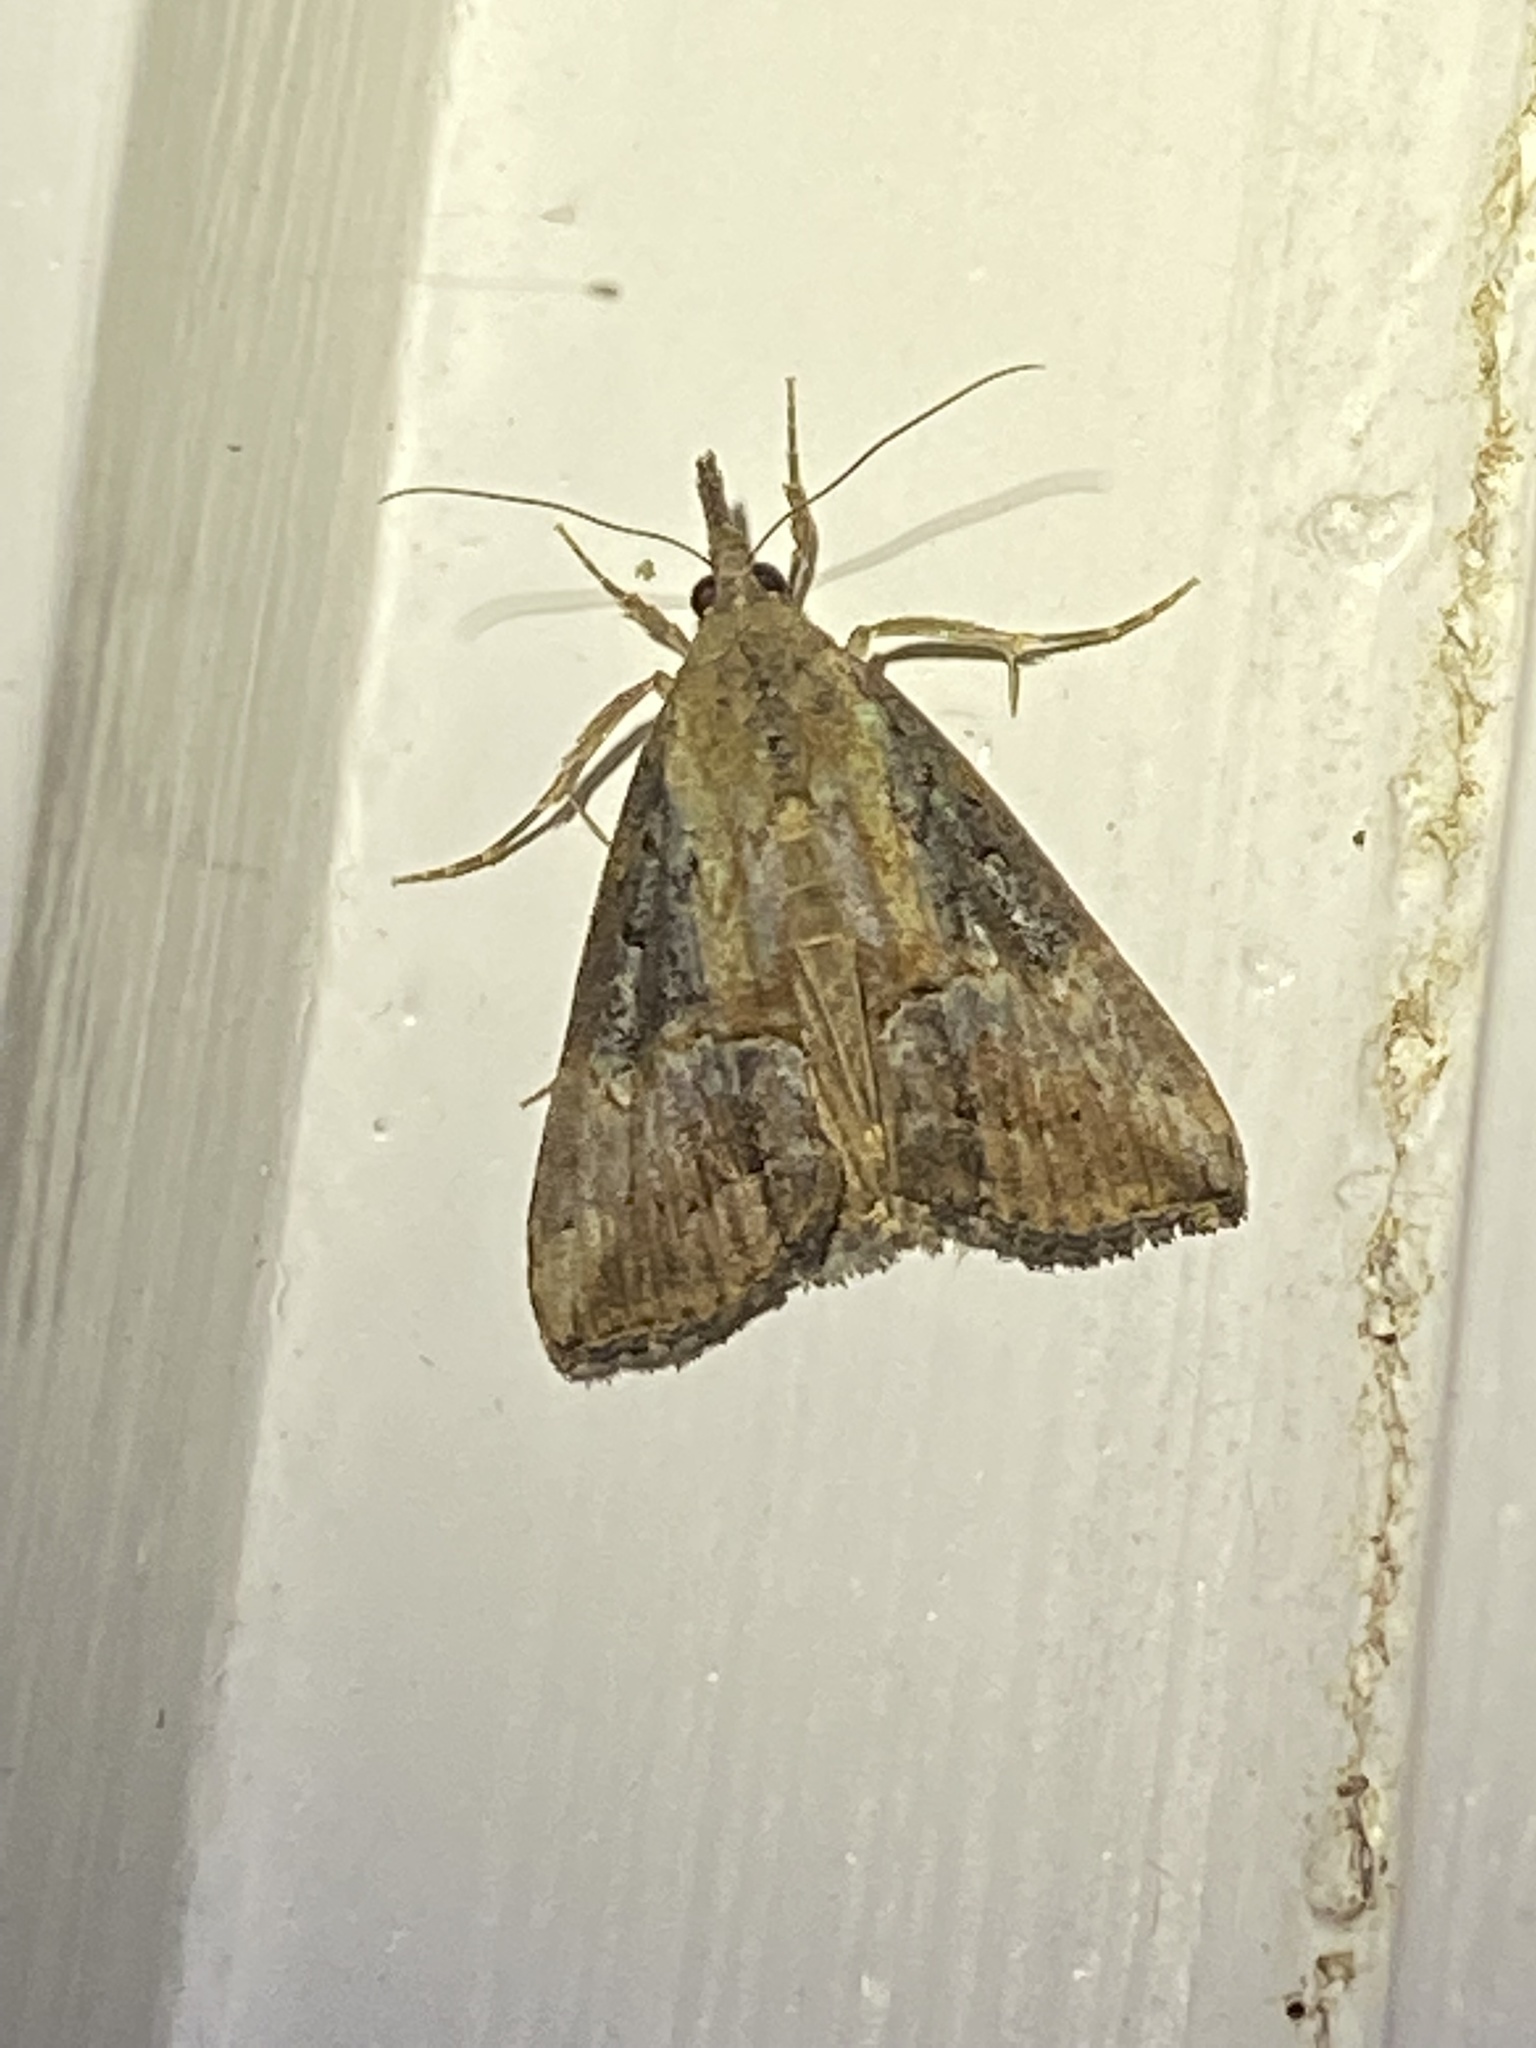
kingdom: Animalia
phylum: Arthropoda
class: Insecta
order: Lepidoptera
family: Erebidae
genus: Hypena
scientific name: Hypena scabra
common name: Green cloverworm
